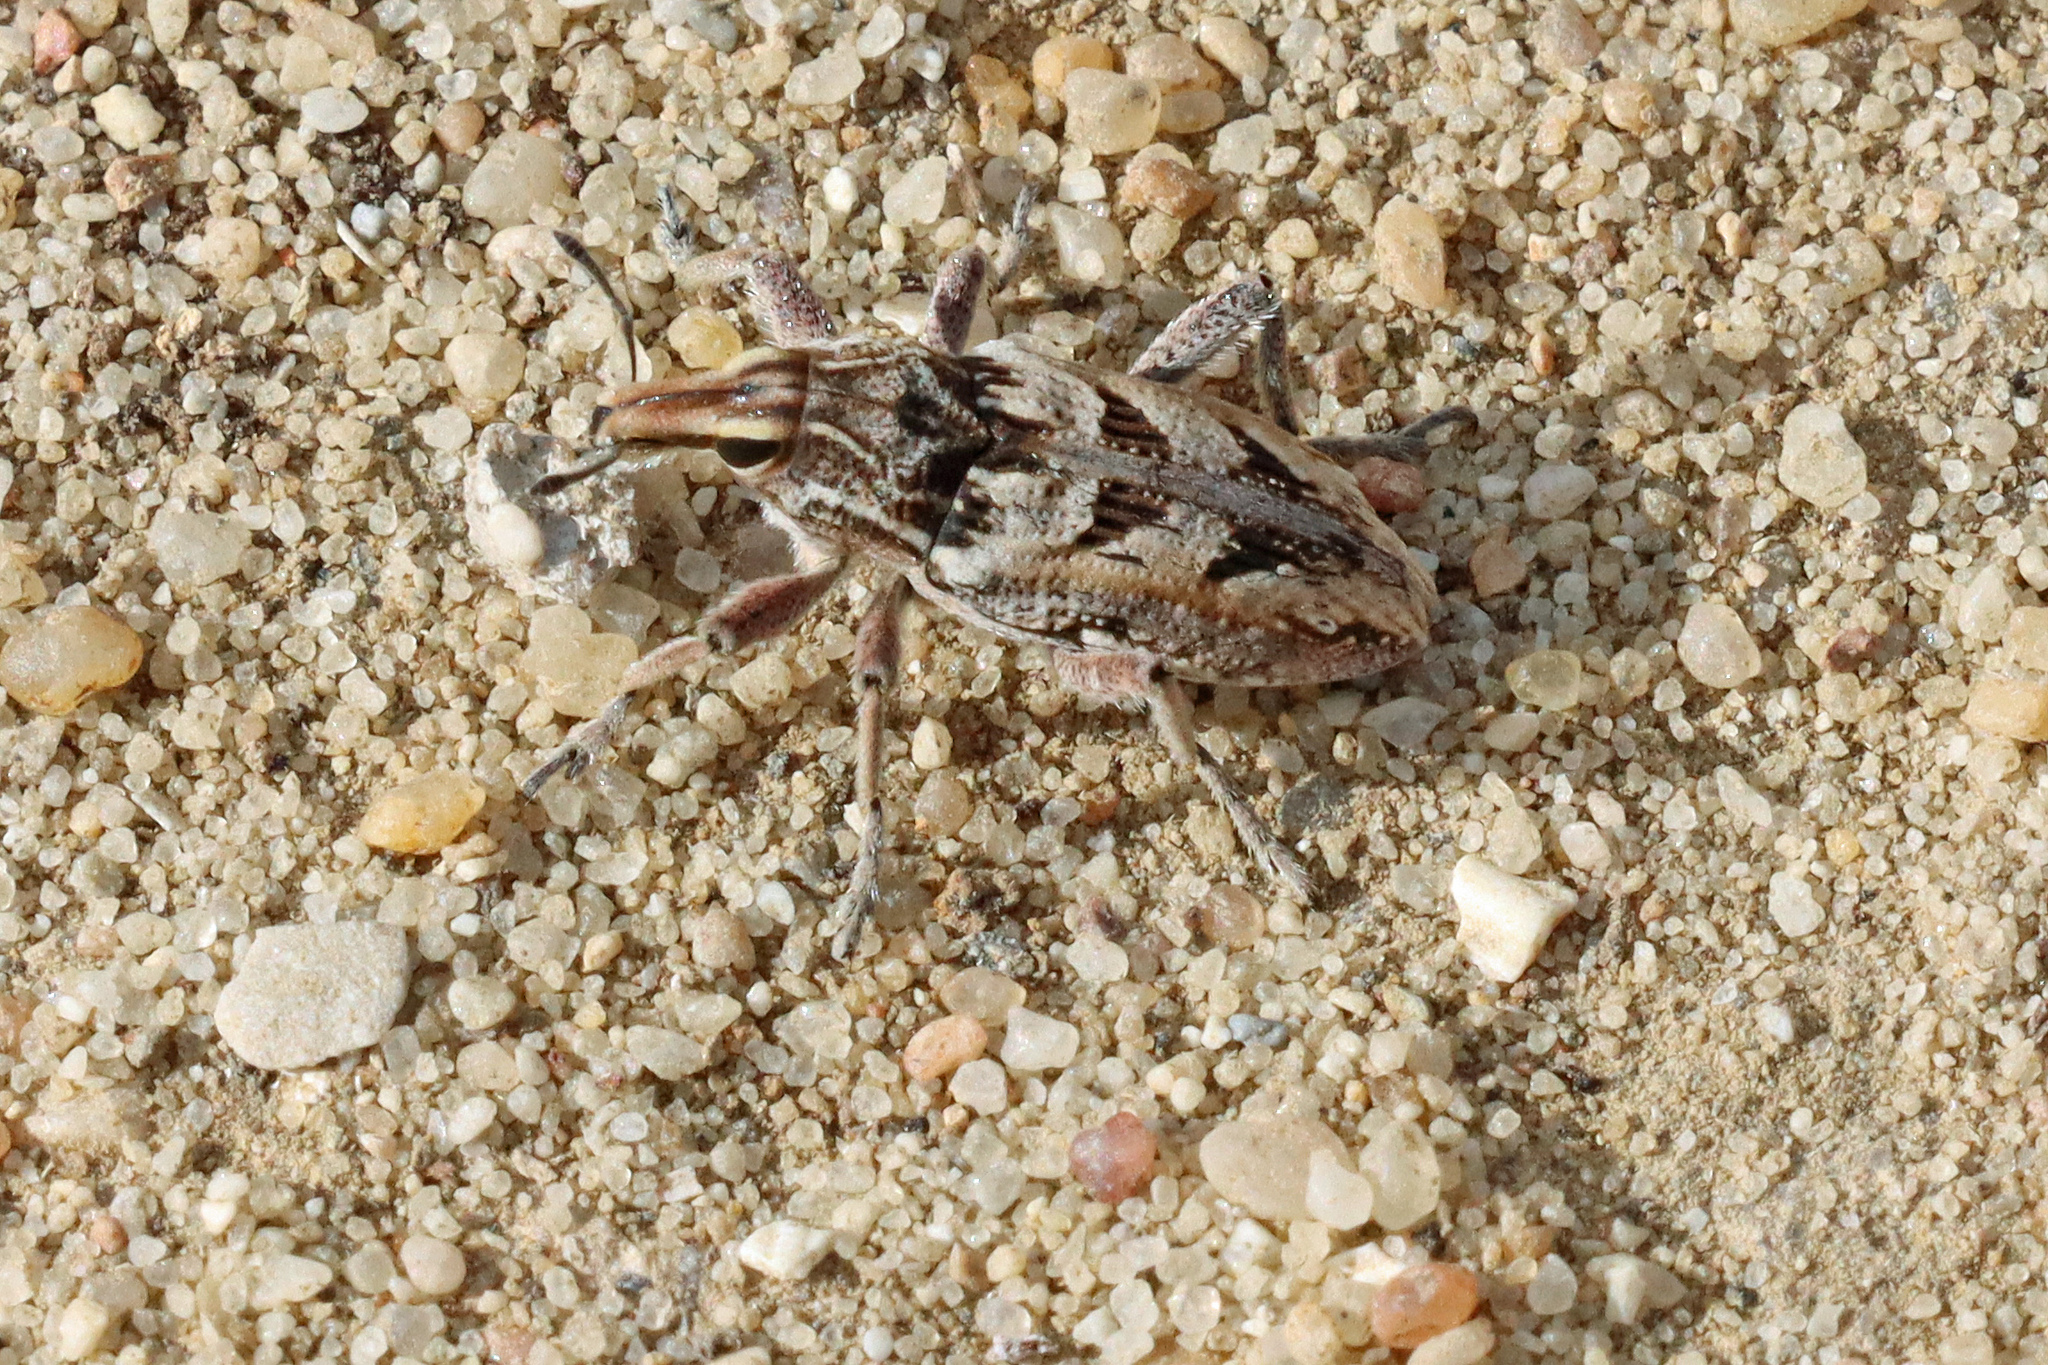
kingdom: Animalia
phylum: Arthropoda
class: Insecta
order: Coleoptera
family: Curculionidae
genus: Coniocleonus
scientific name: Coniocleonus nigrosuturatus
